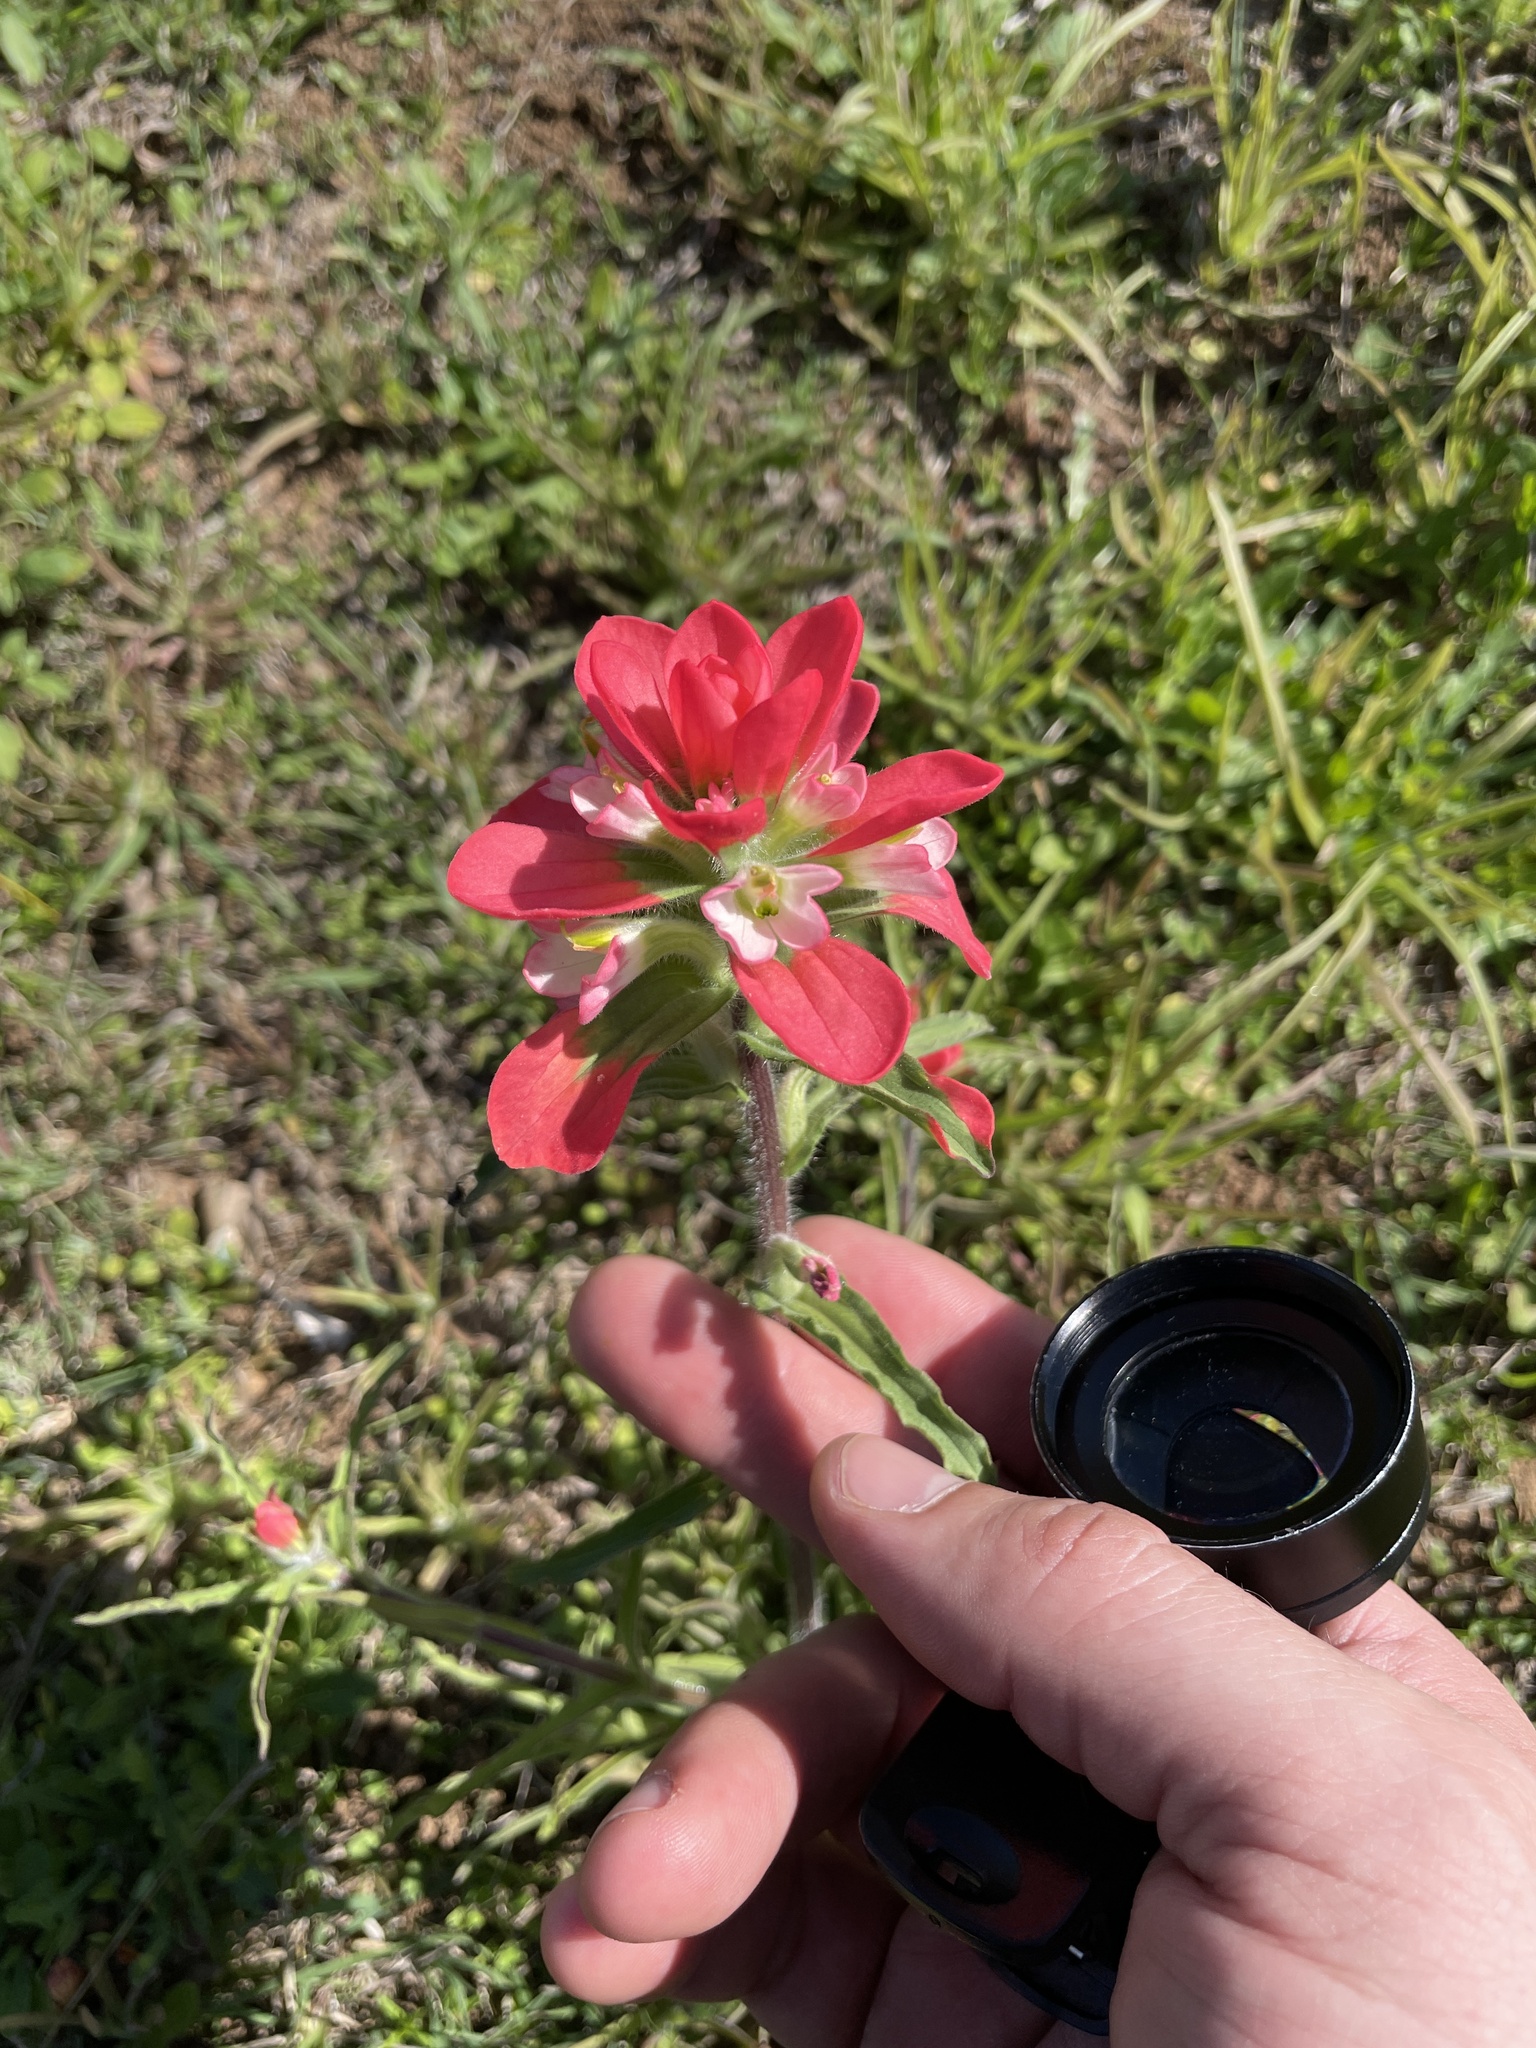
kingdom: Plantae
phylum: Tracheophyta
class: Magnoliopsida
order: Lamiales
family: Orobanchaceae
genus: Castilleja
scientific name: Castilleja indivisa
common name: Texas paintbrush
